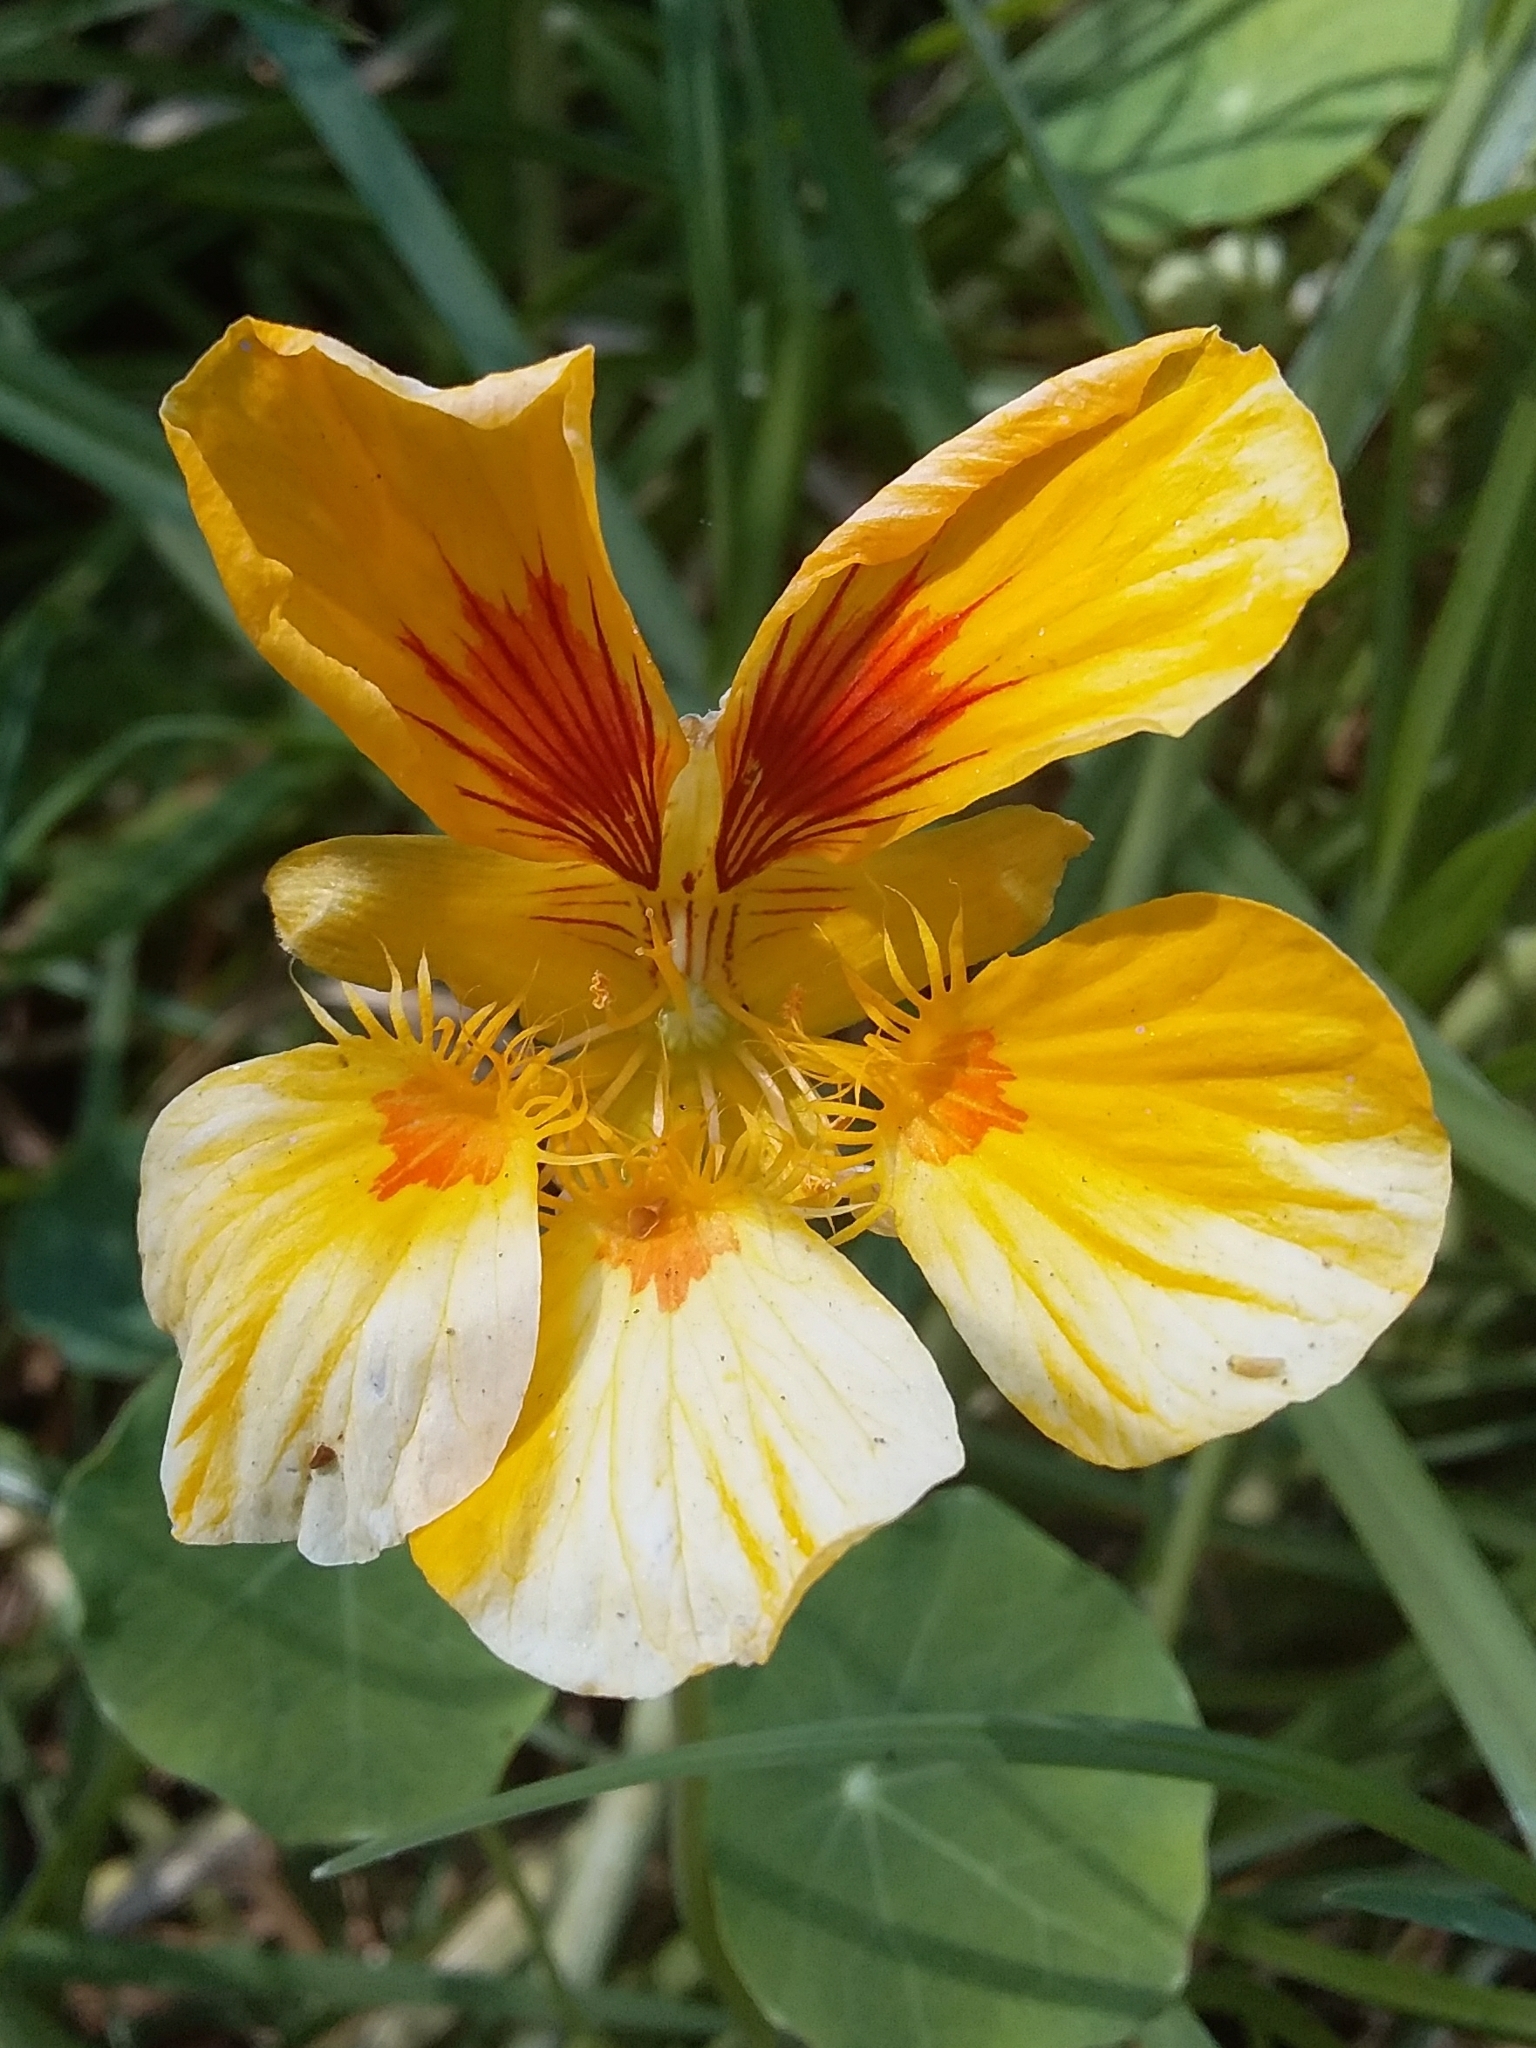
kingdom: Plantae
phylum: Tracheophyta
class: Magnoliopsida
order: Brassicales
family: Tropaeolaceae
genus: Tropaeolum
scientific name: Tropaeolum majus
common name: Nasturtium
